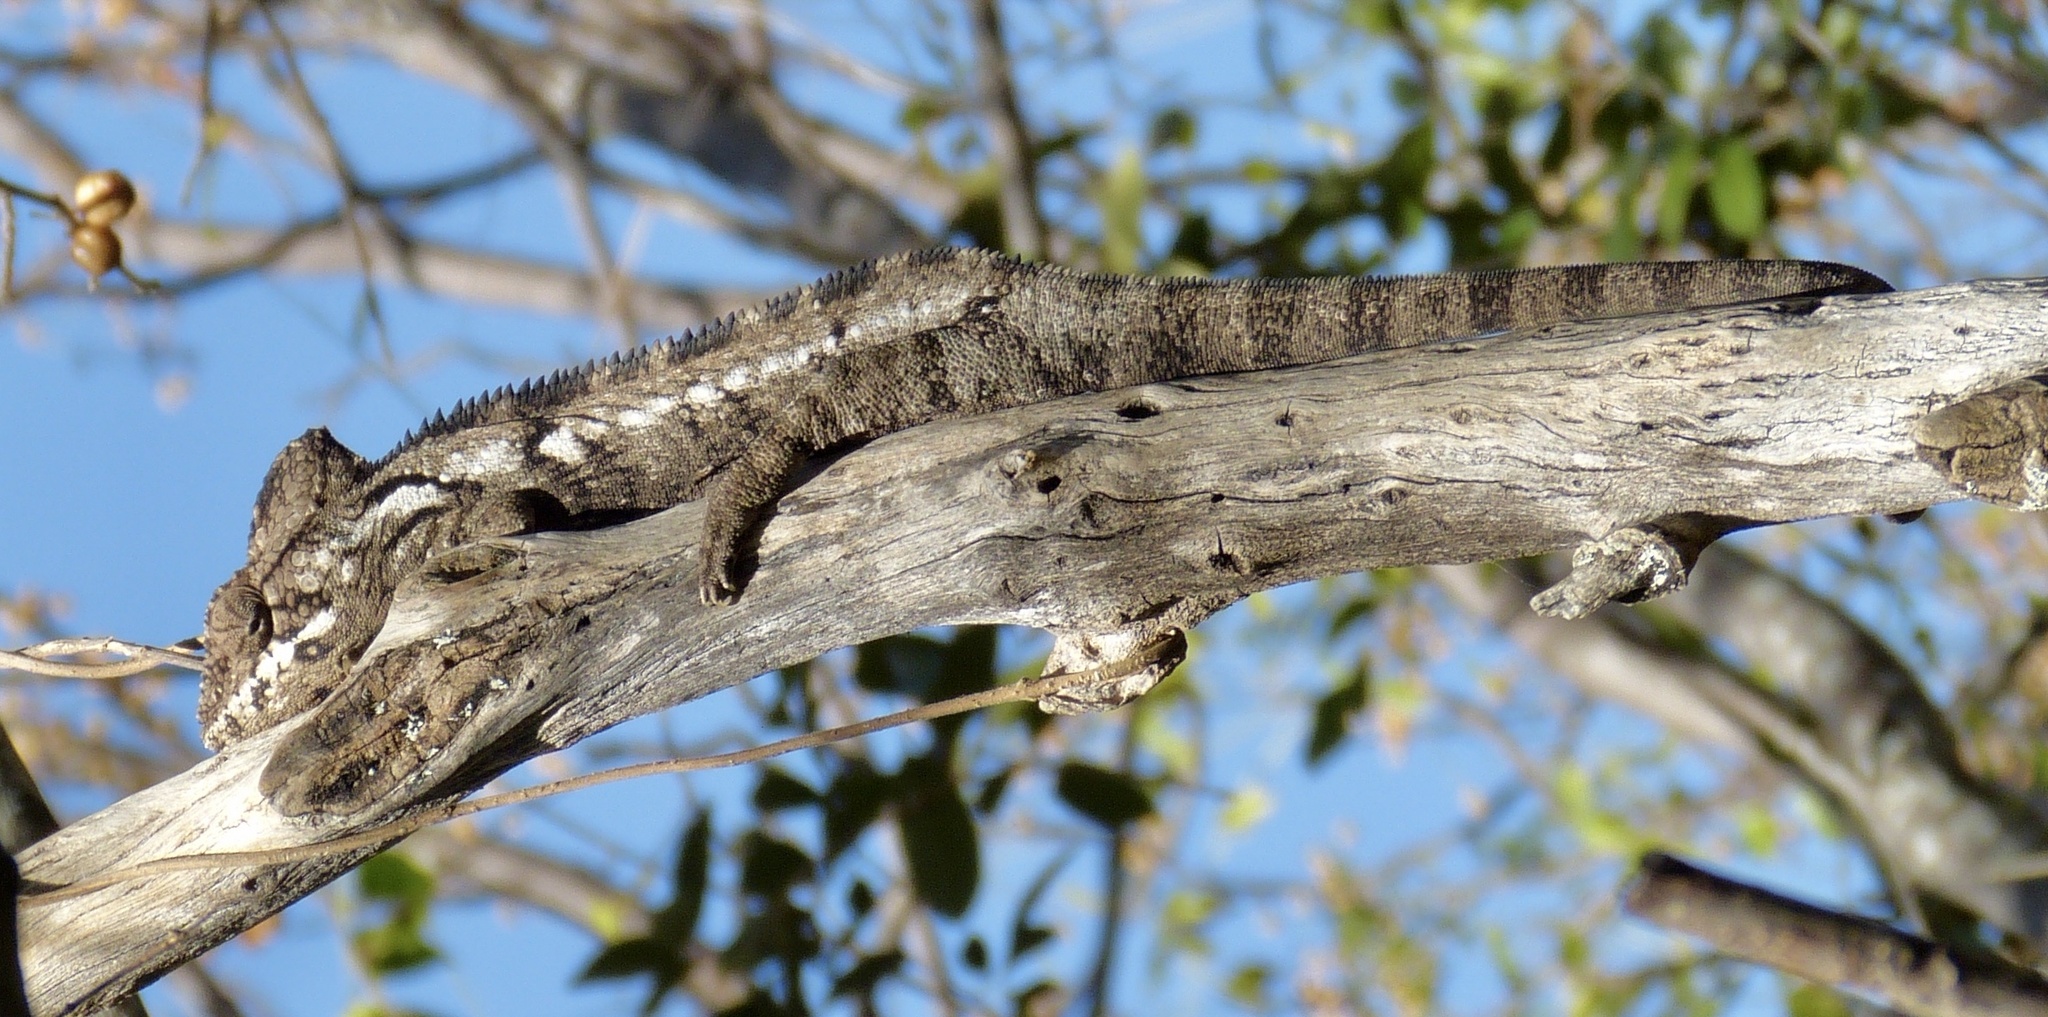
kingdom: Animalia
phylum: Chordata
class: Squamata
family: Chamaeleonidae
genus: Furcifer
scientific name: Furcifer oustaleti
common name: Oustalet's chameleon
